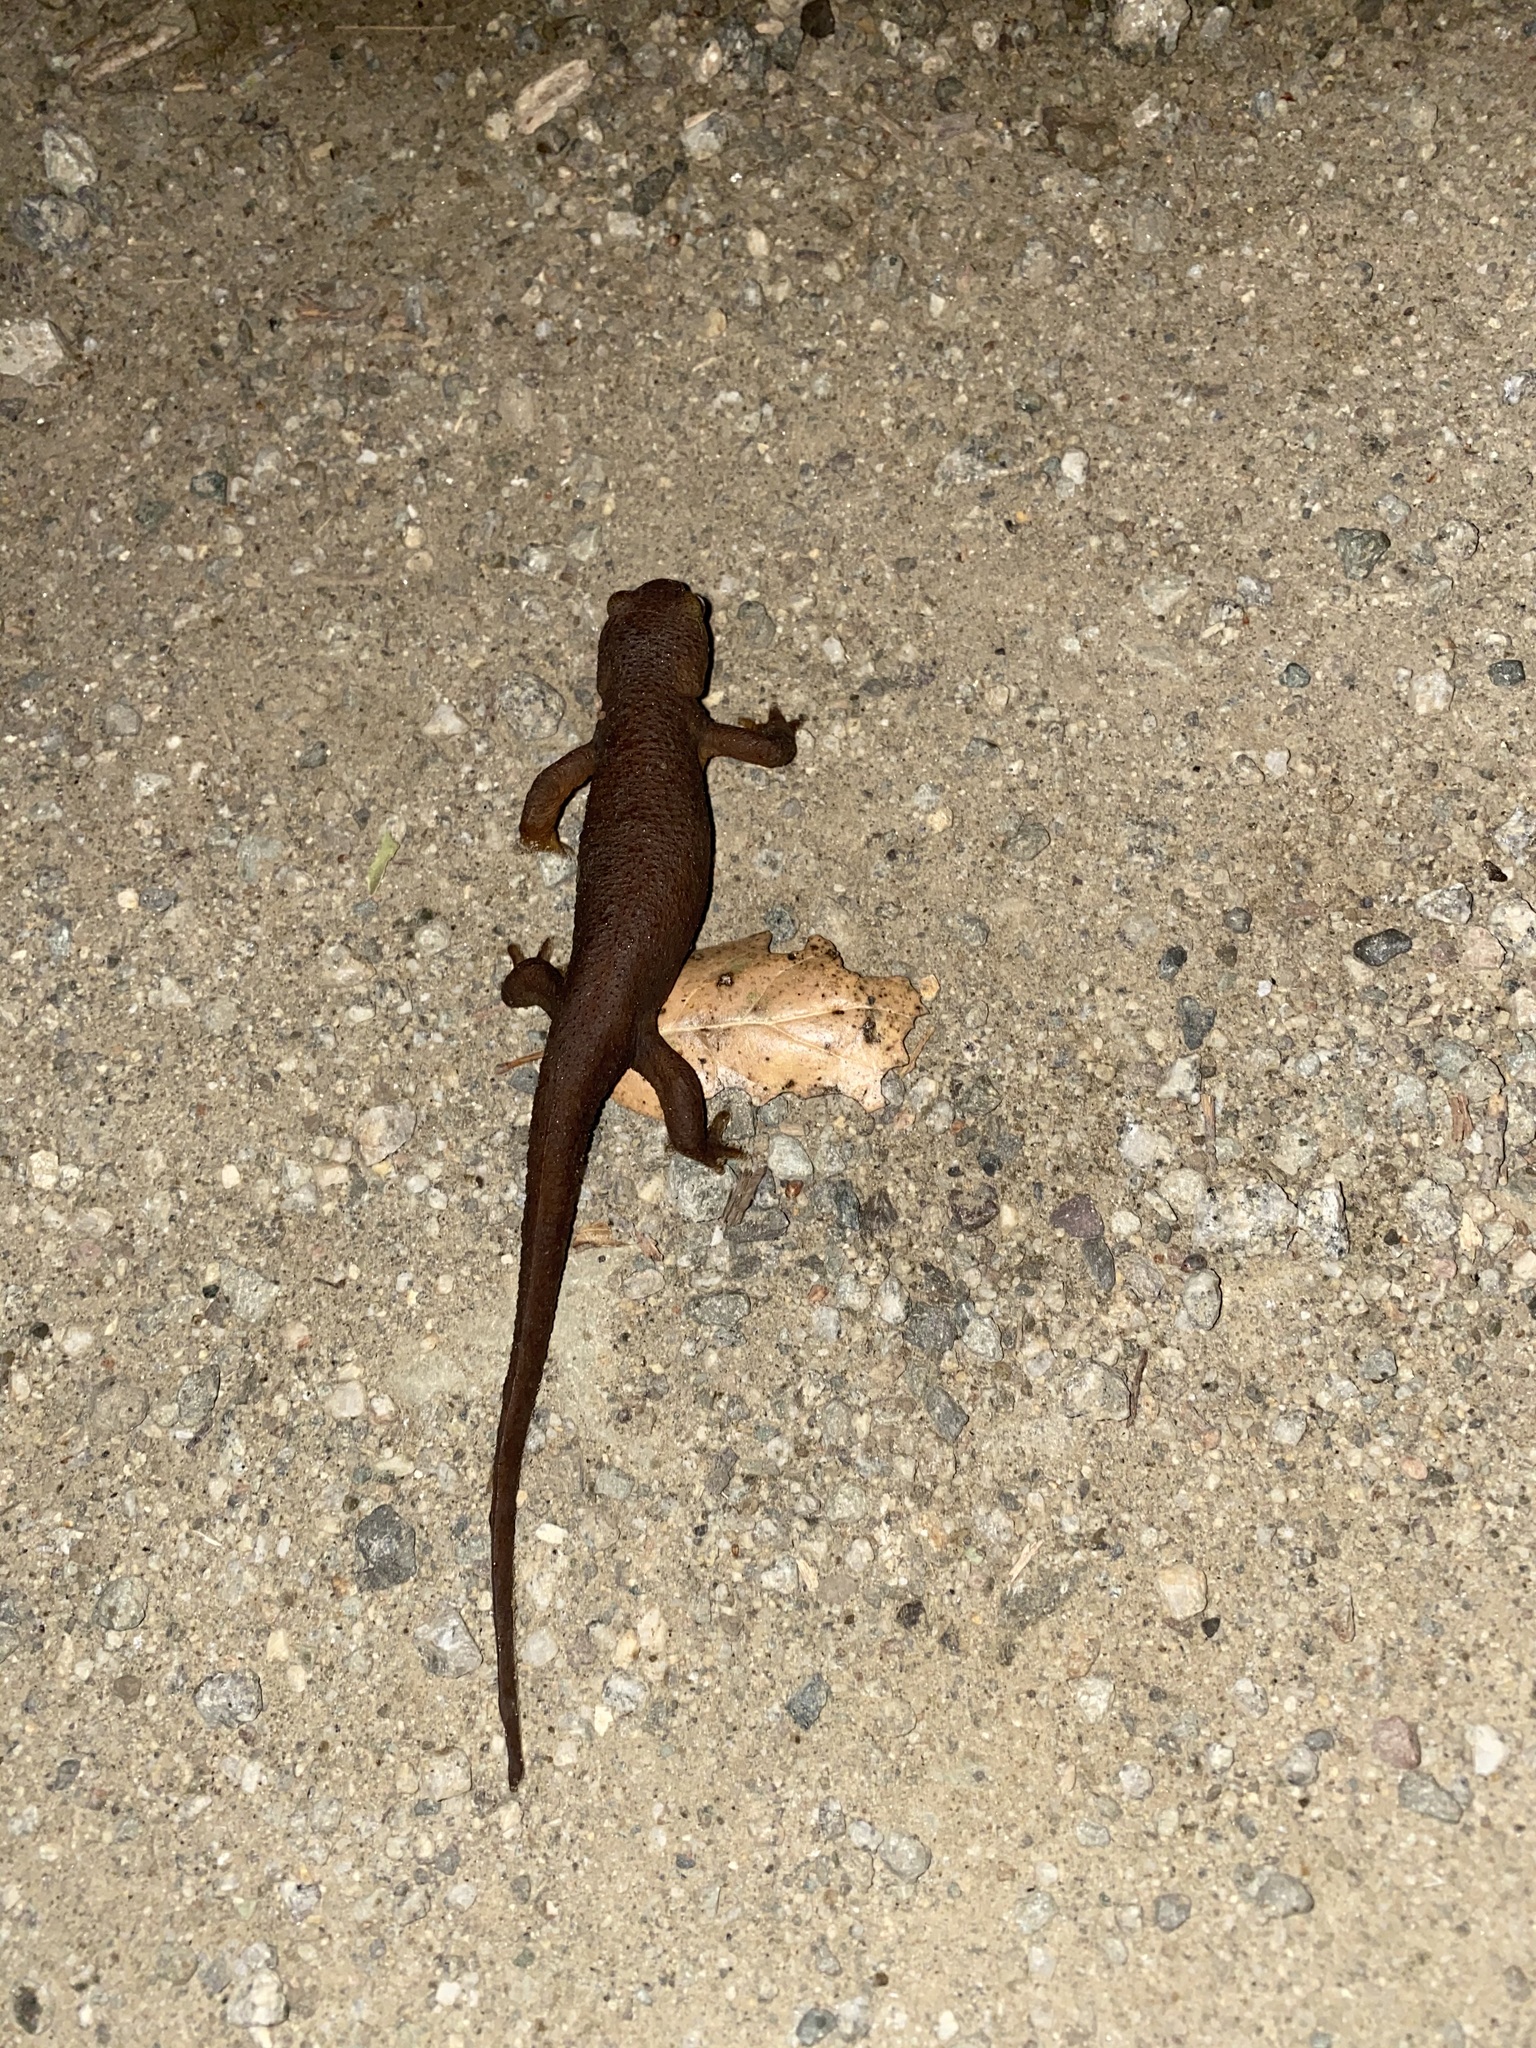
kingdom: Animalia
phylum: Chordata
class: Amphibia
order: Caudata
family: Salamandridae
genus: Taricha
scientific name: Taricha torosa
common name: California newt
